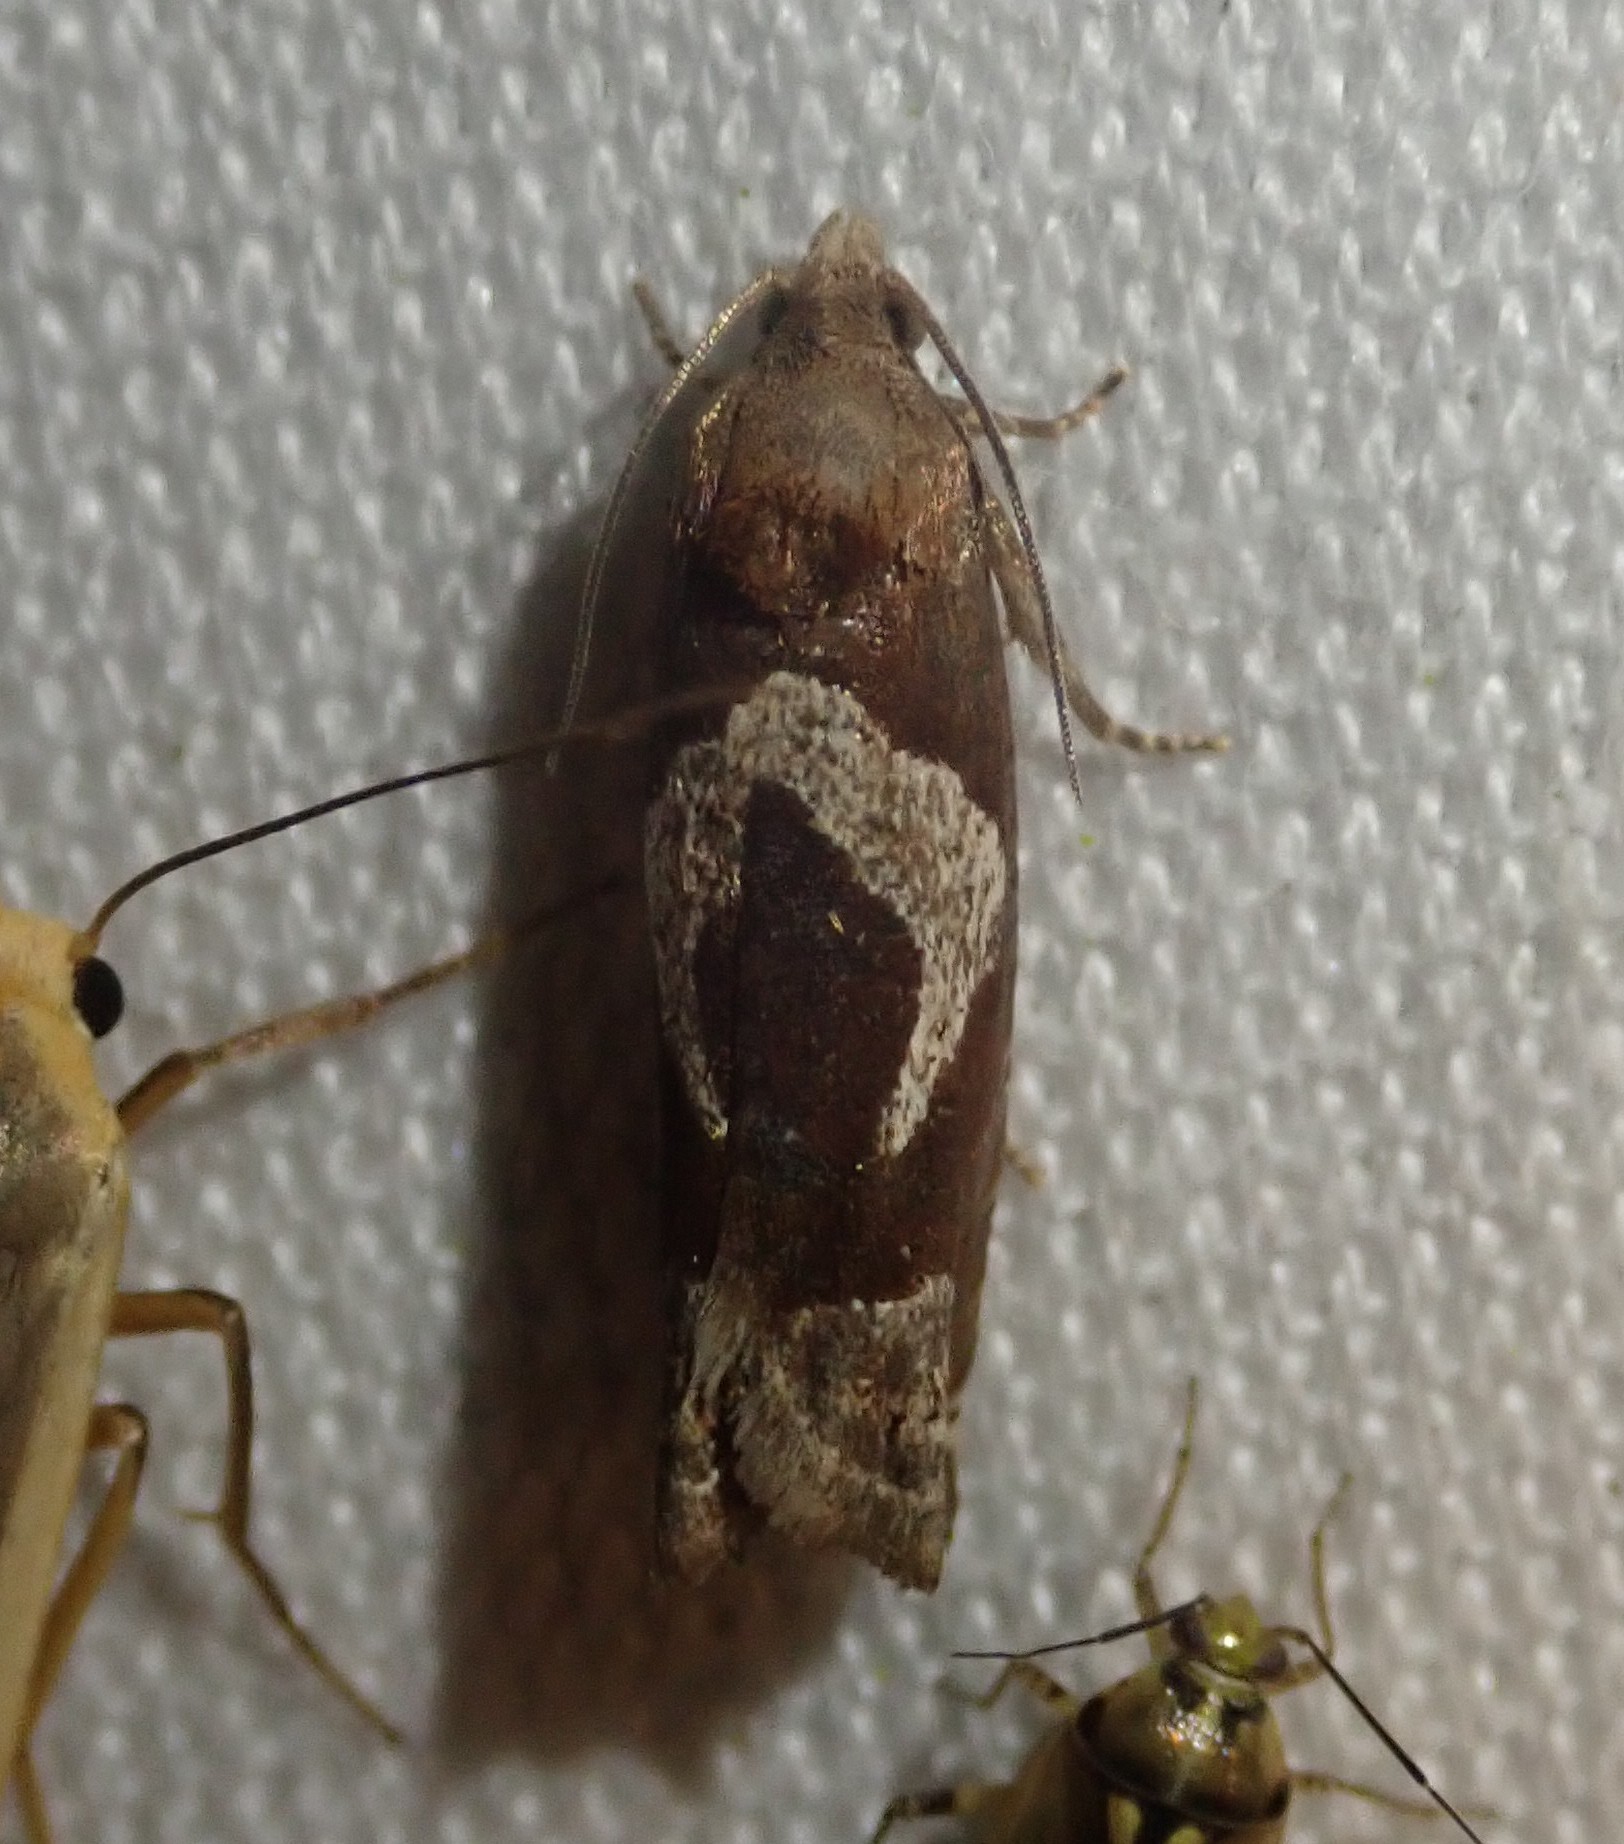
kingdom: Animalia
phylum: Arthropoda
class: Insecta
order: Lepidoptera
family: Tortricidae
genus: Epiblema
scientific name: Epiblema foenella
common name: White-foot bell
